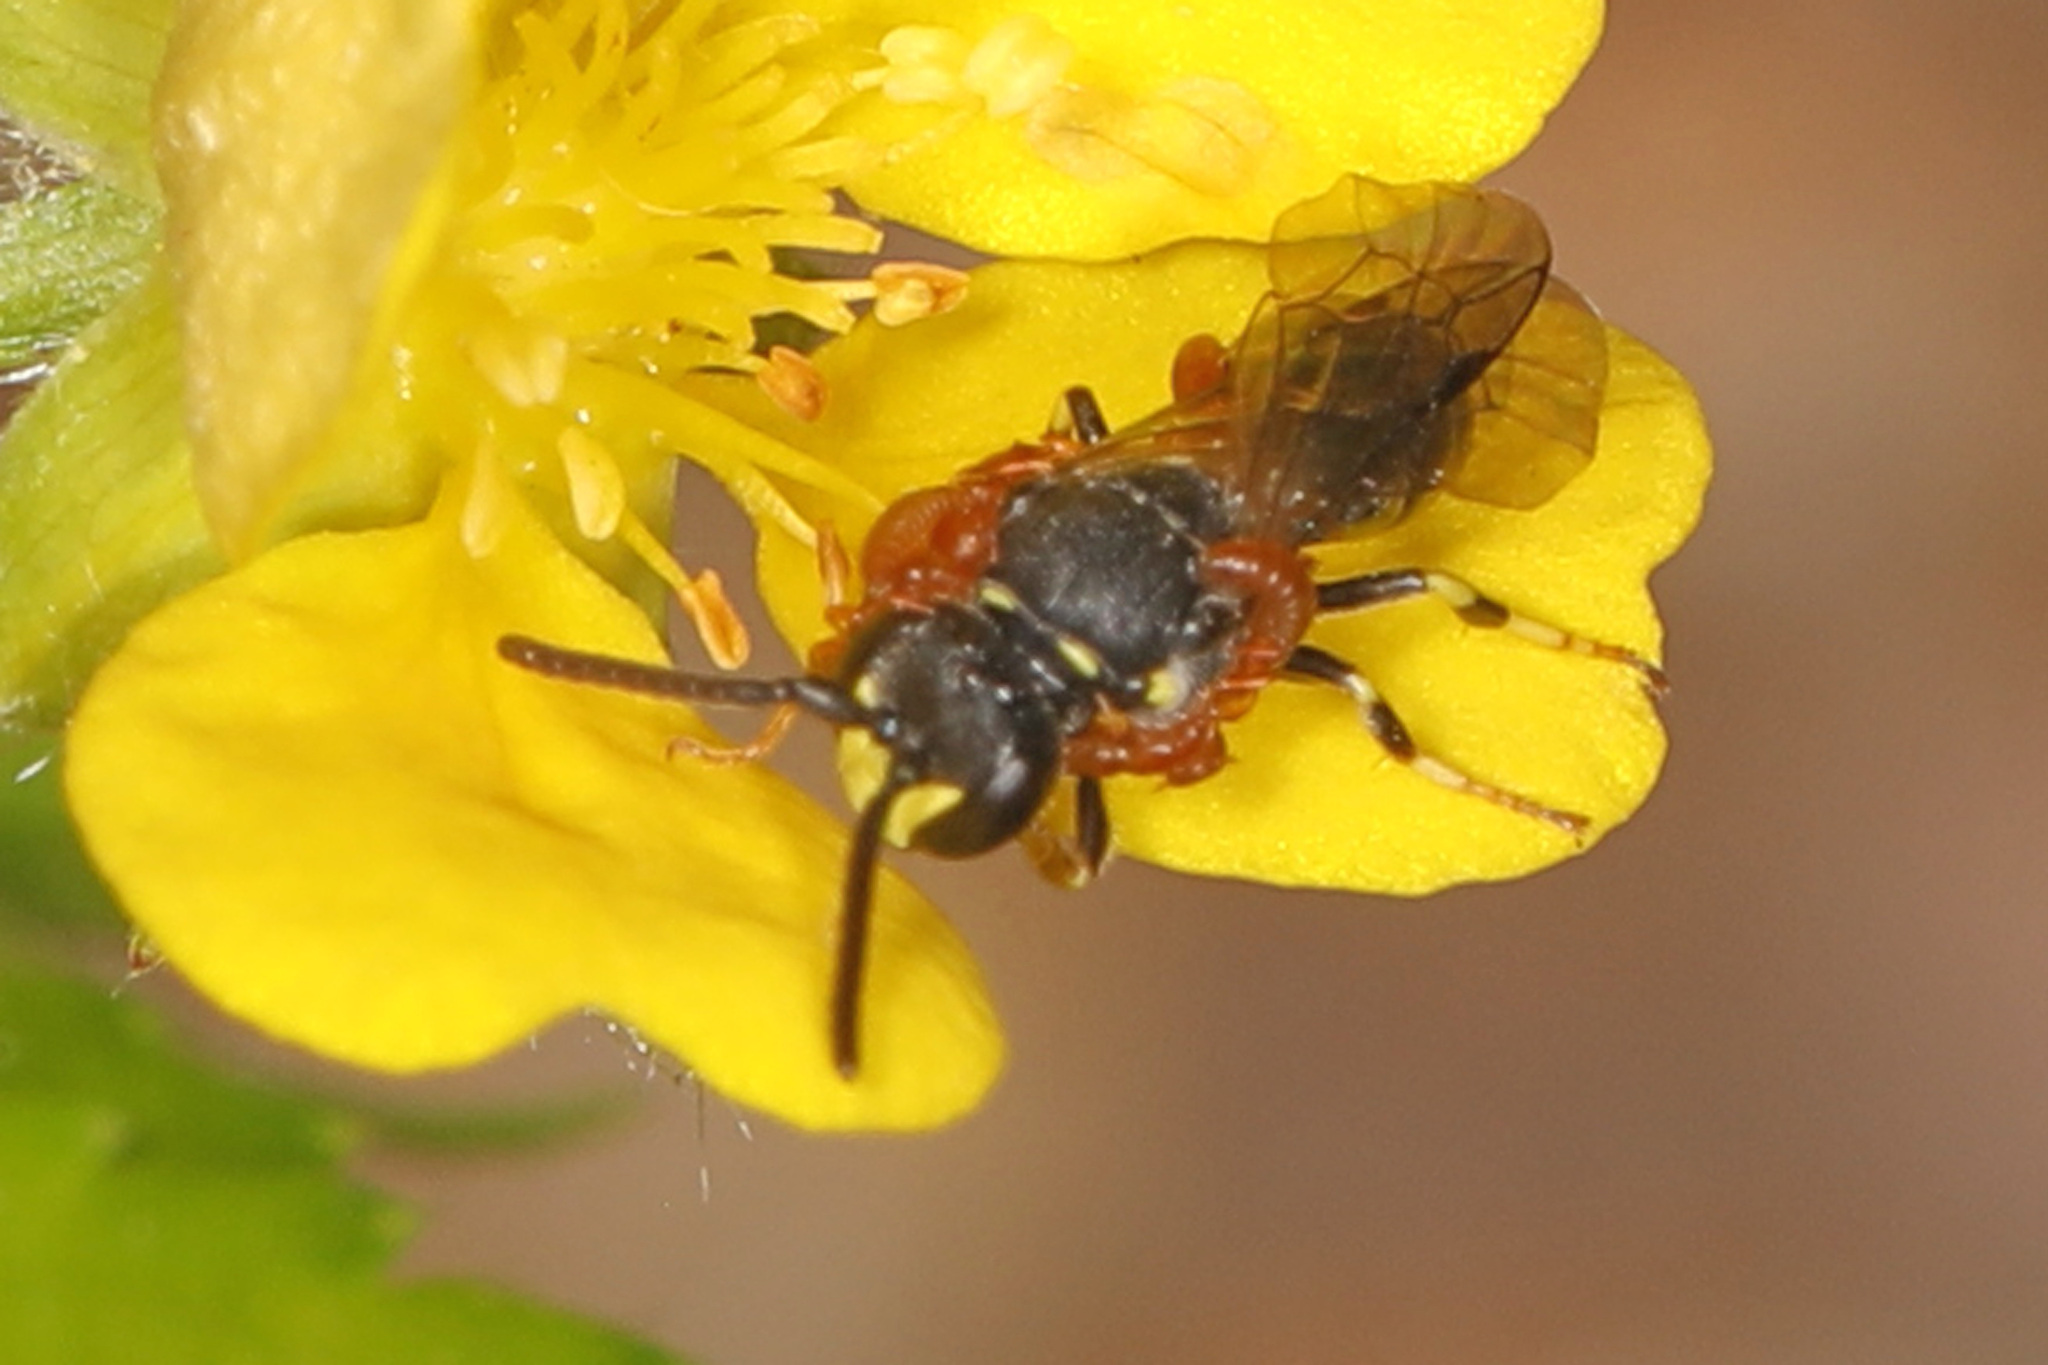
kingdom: Animalia
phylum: Arthropoda
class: Insecta
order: Hymenoptera
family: Colletidae
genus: Hylaeus
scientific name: Hylaeus modestus
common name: Yellow-faced bee
